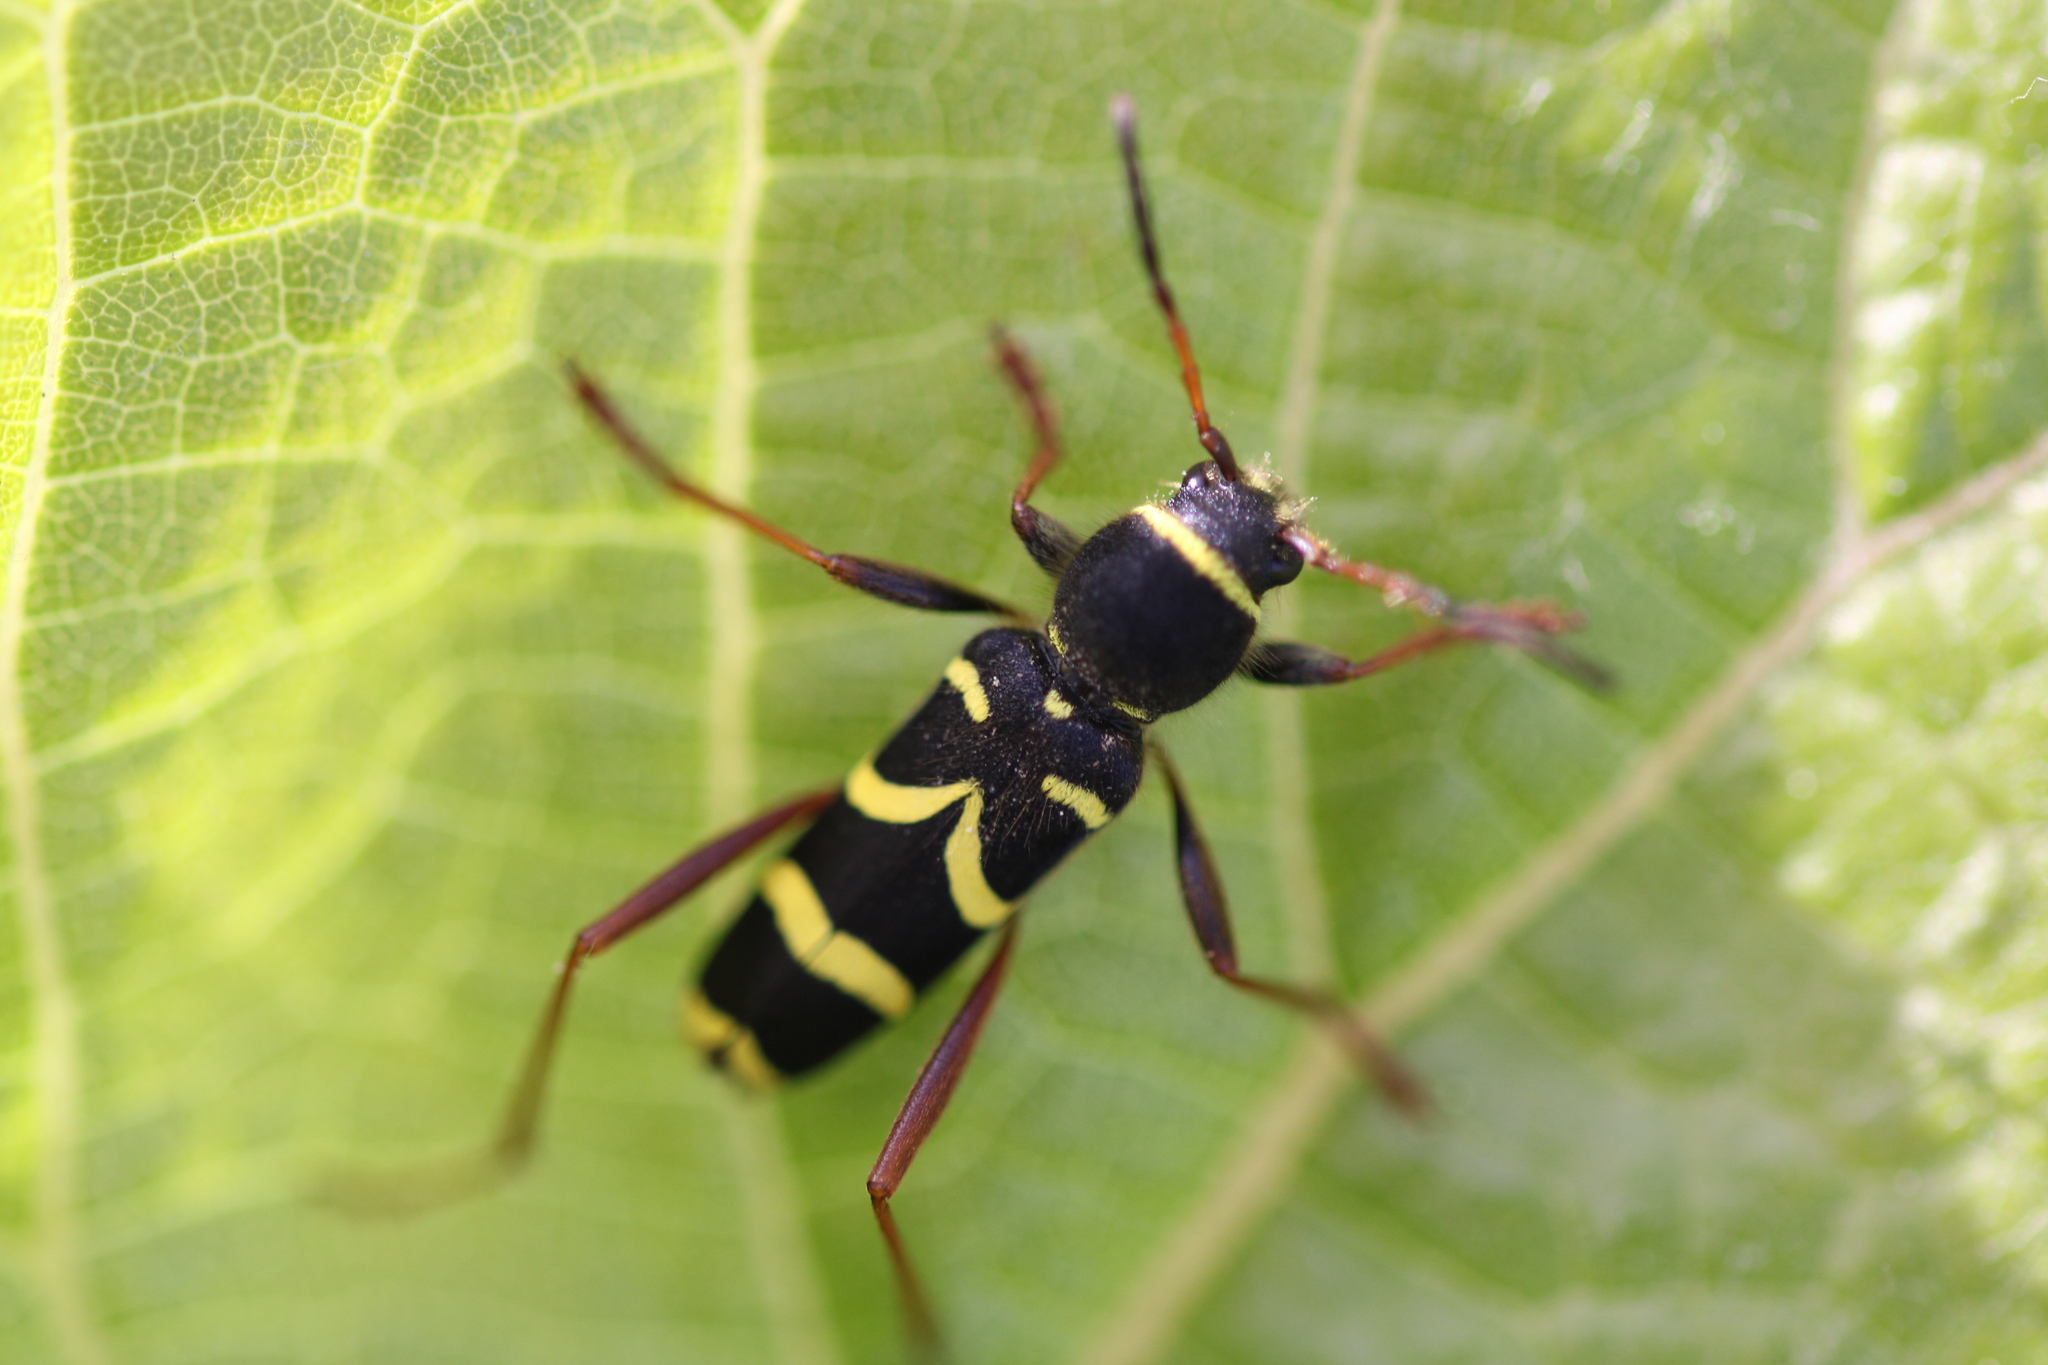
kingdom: Animalia
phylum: Arthropoda
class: Insecta
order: Coleoptera
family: Cerambycidae
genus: Clytus
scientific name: Clytus arietis
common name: Wasp beetle
